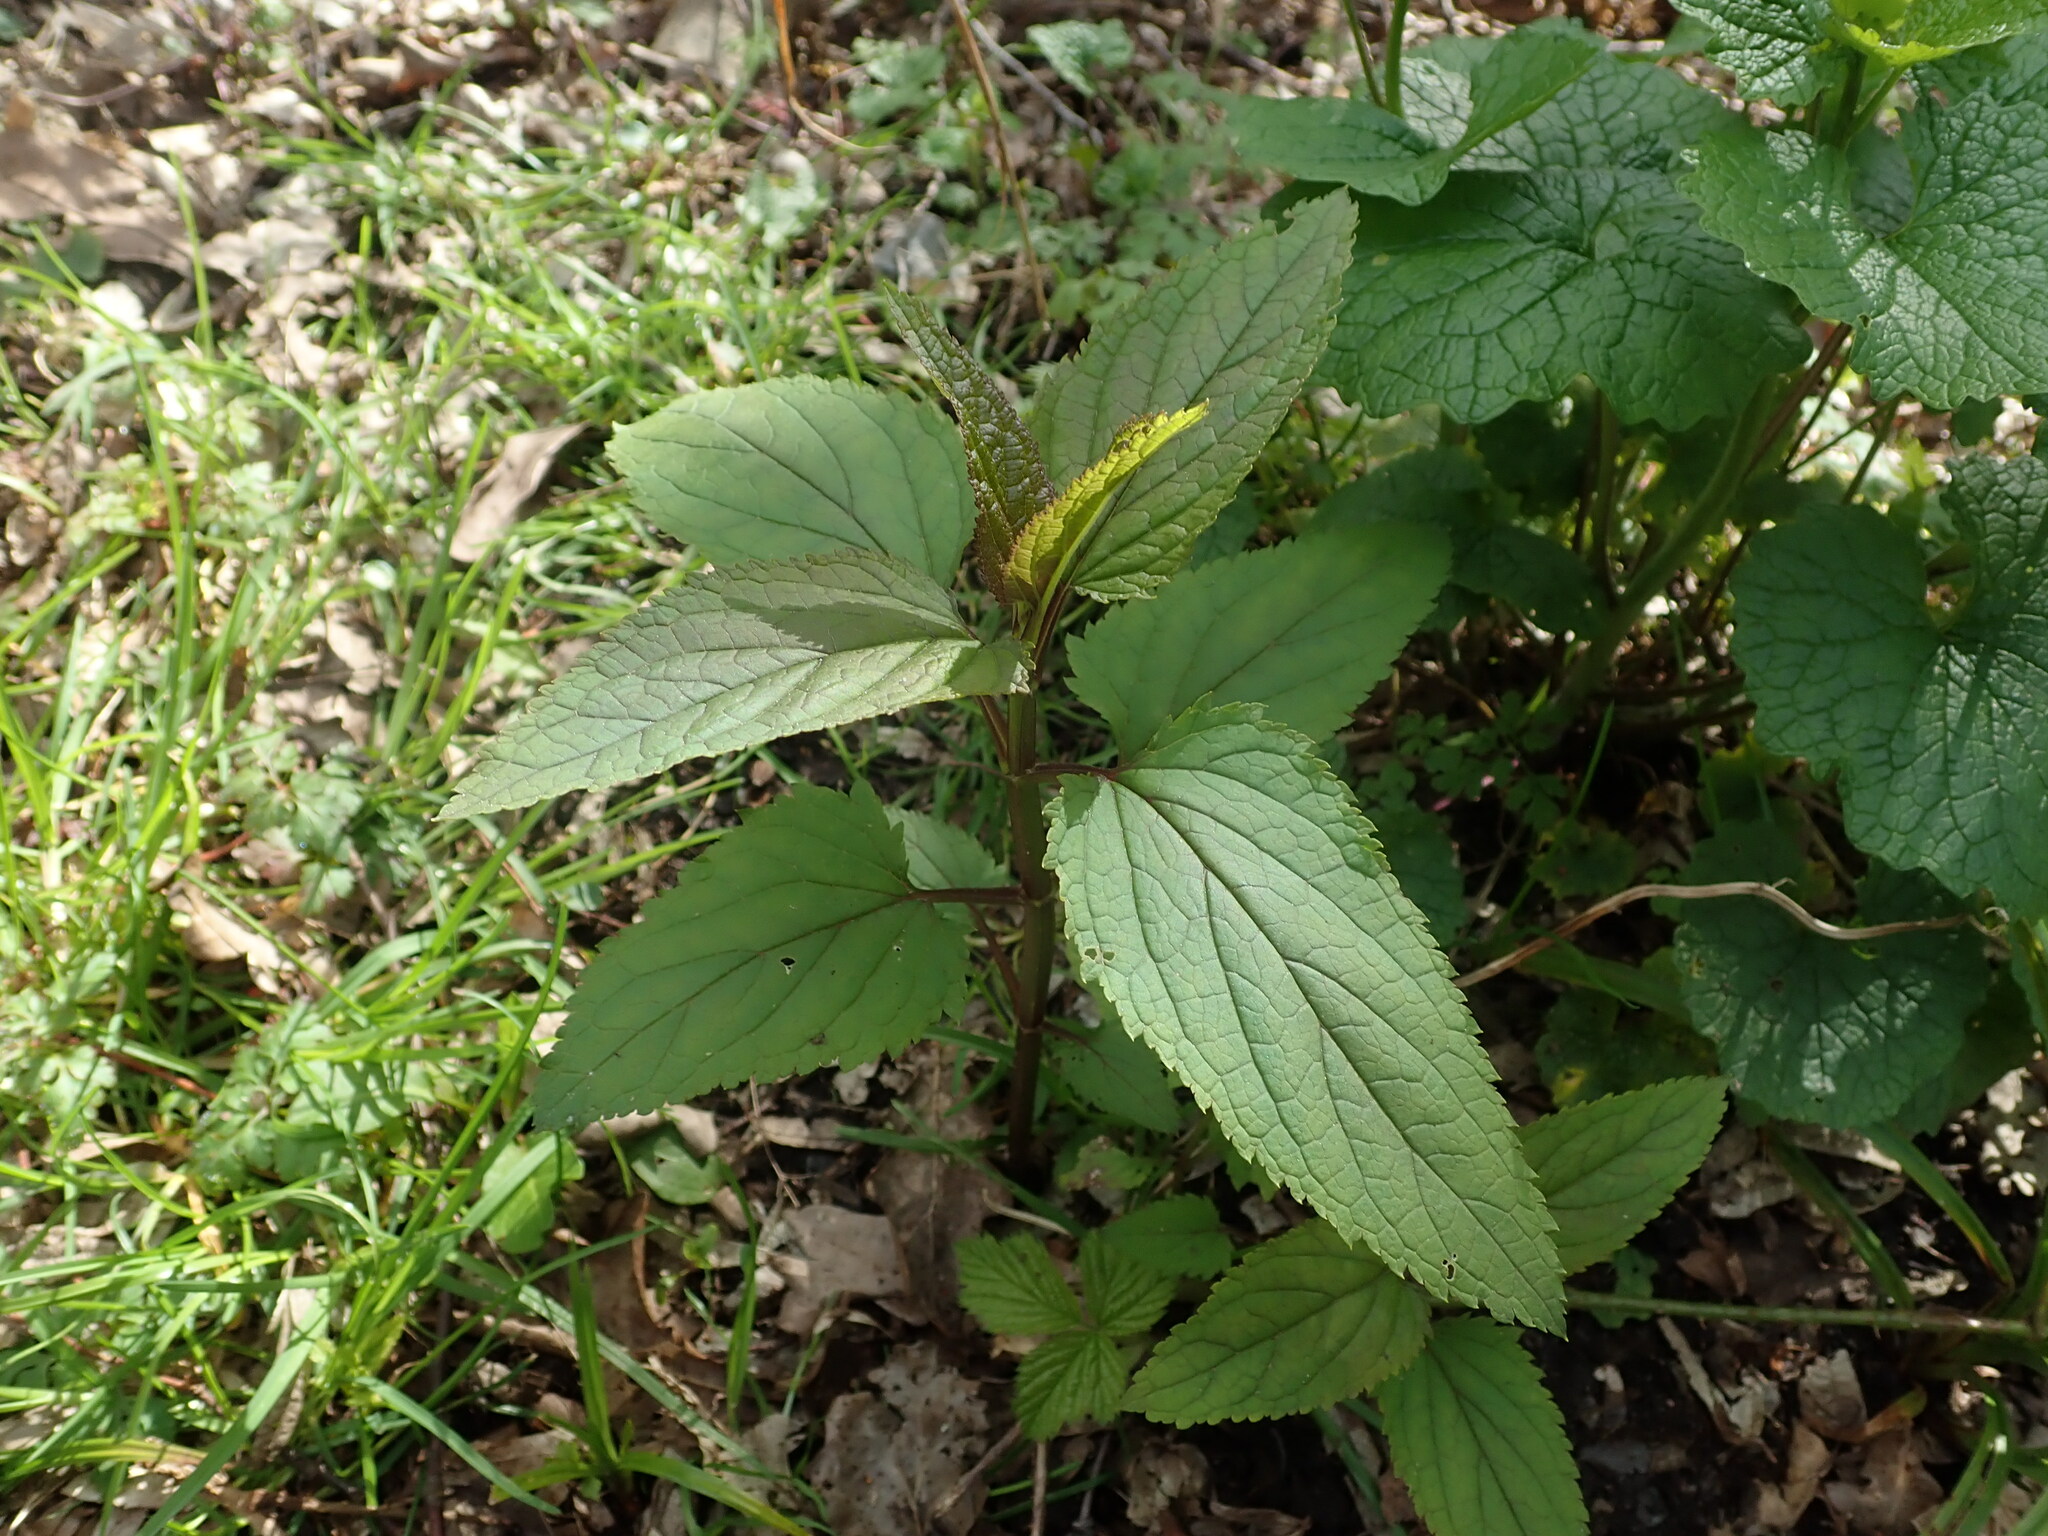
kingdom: Plantae
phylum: Tracheophyta
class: Magnoliopsida
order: Lamiales
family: Scrophulariaceae
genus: Scrophularia
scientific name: Scrophularia nodosa
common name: Common figwort
